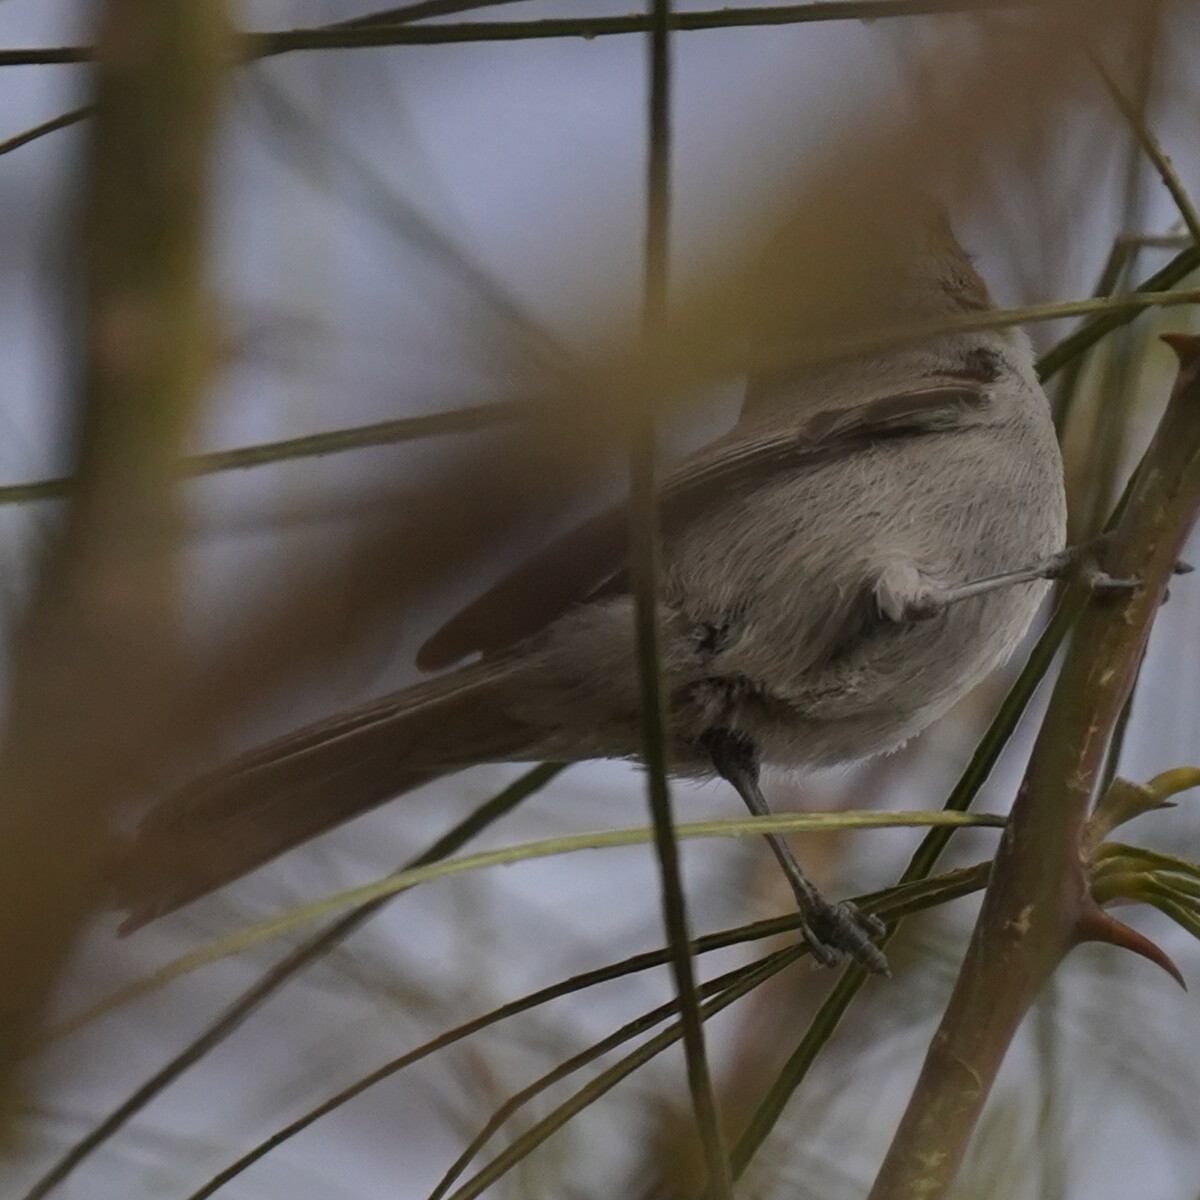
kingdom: Animalia
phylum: Chordata
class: Aves
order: Passeriformes
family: Remizidae
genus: Auriparus
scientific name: Auriparus flaviceps
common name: Verdin
